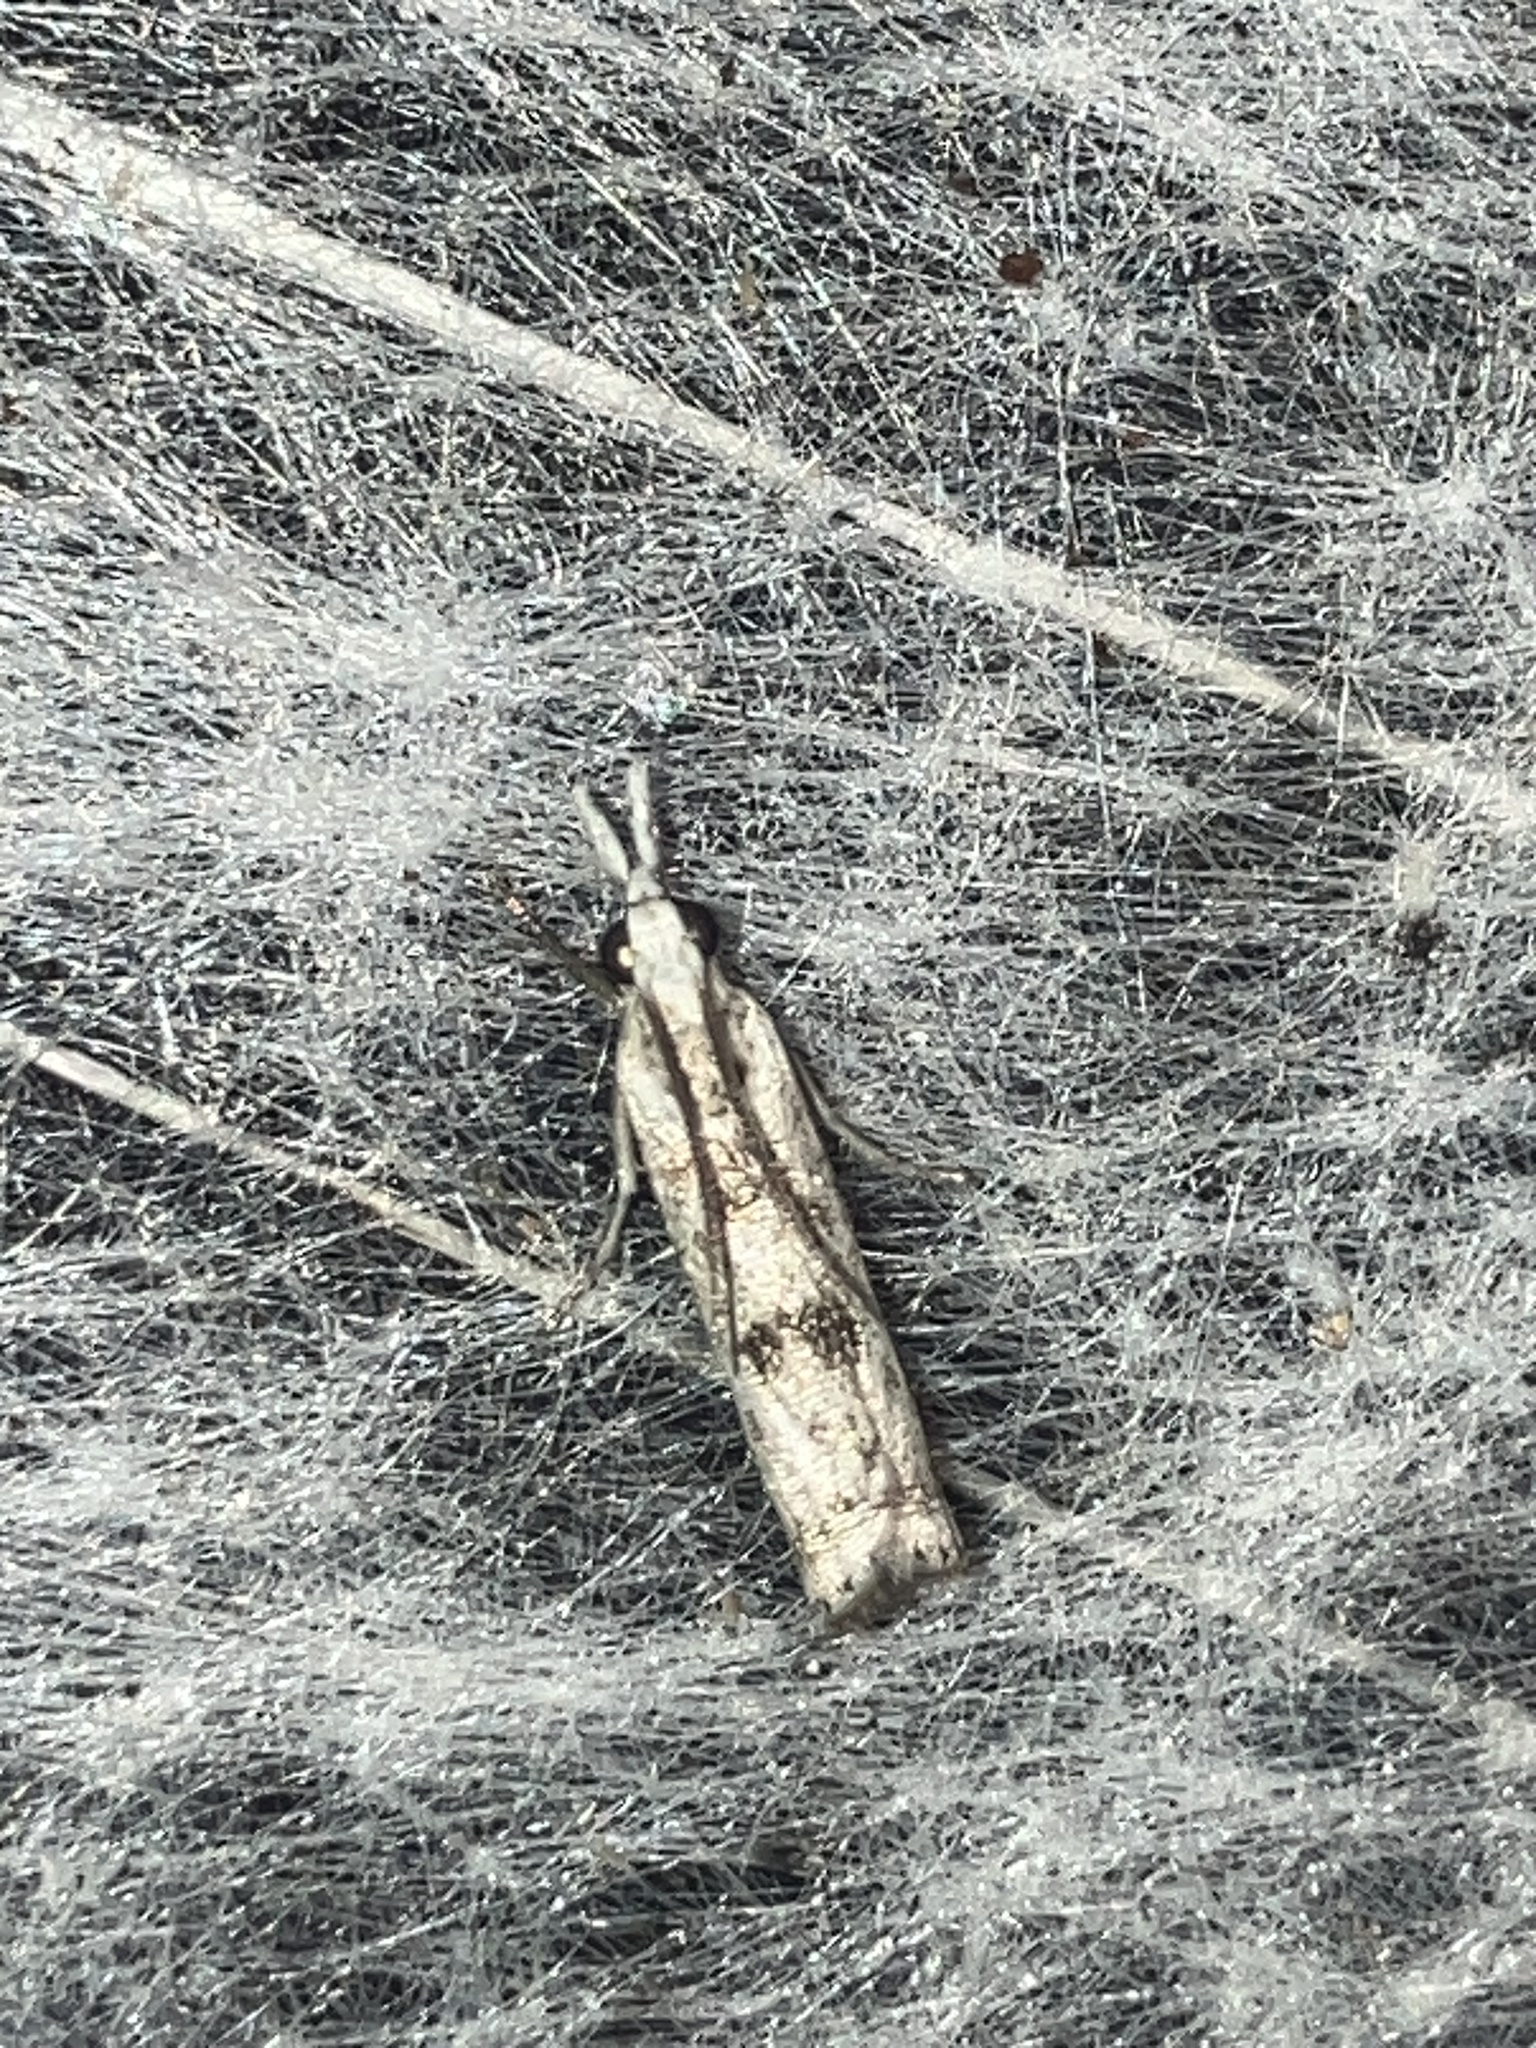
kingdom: Animalia
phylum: Arthropoda
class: Insecta
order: Lepidoptera
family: Crambidae
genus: Microcrambus
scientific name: Microcrambus immunellus
